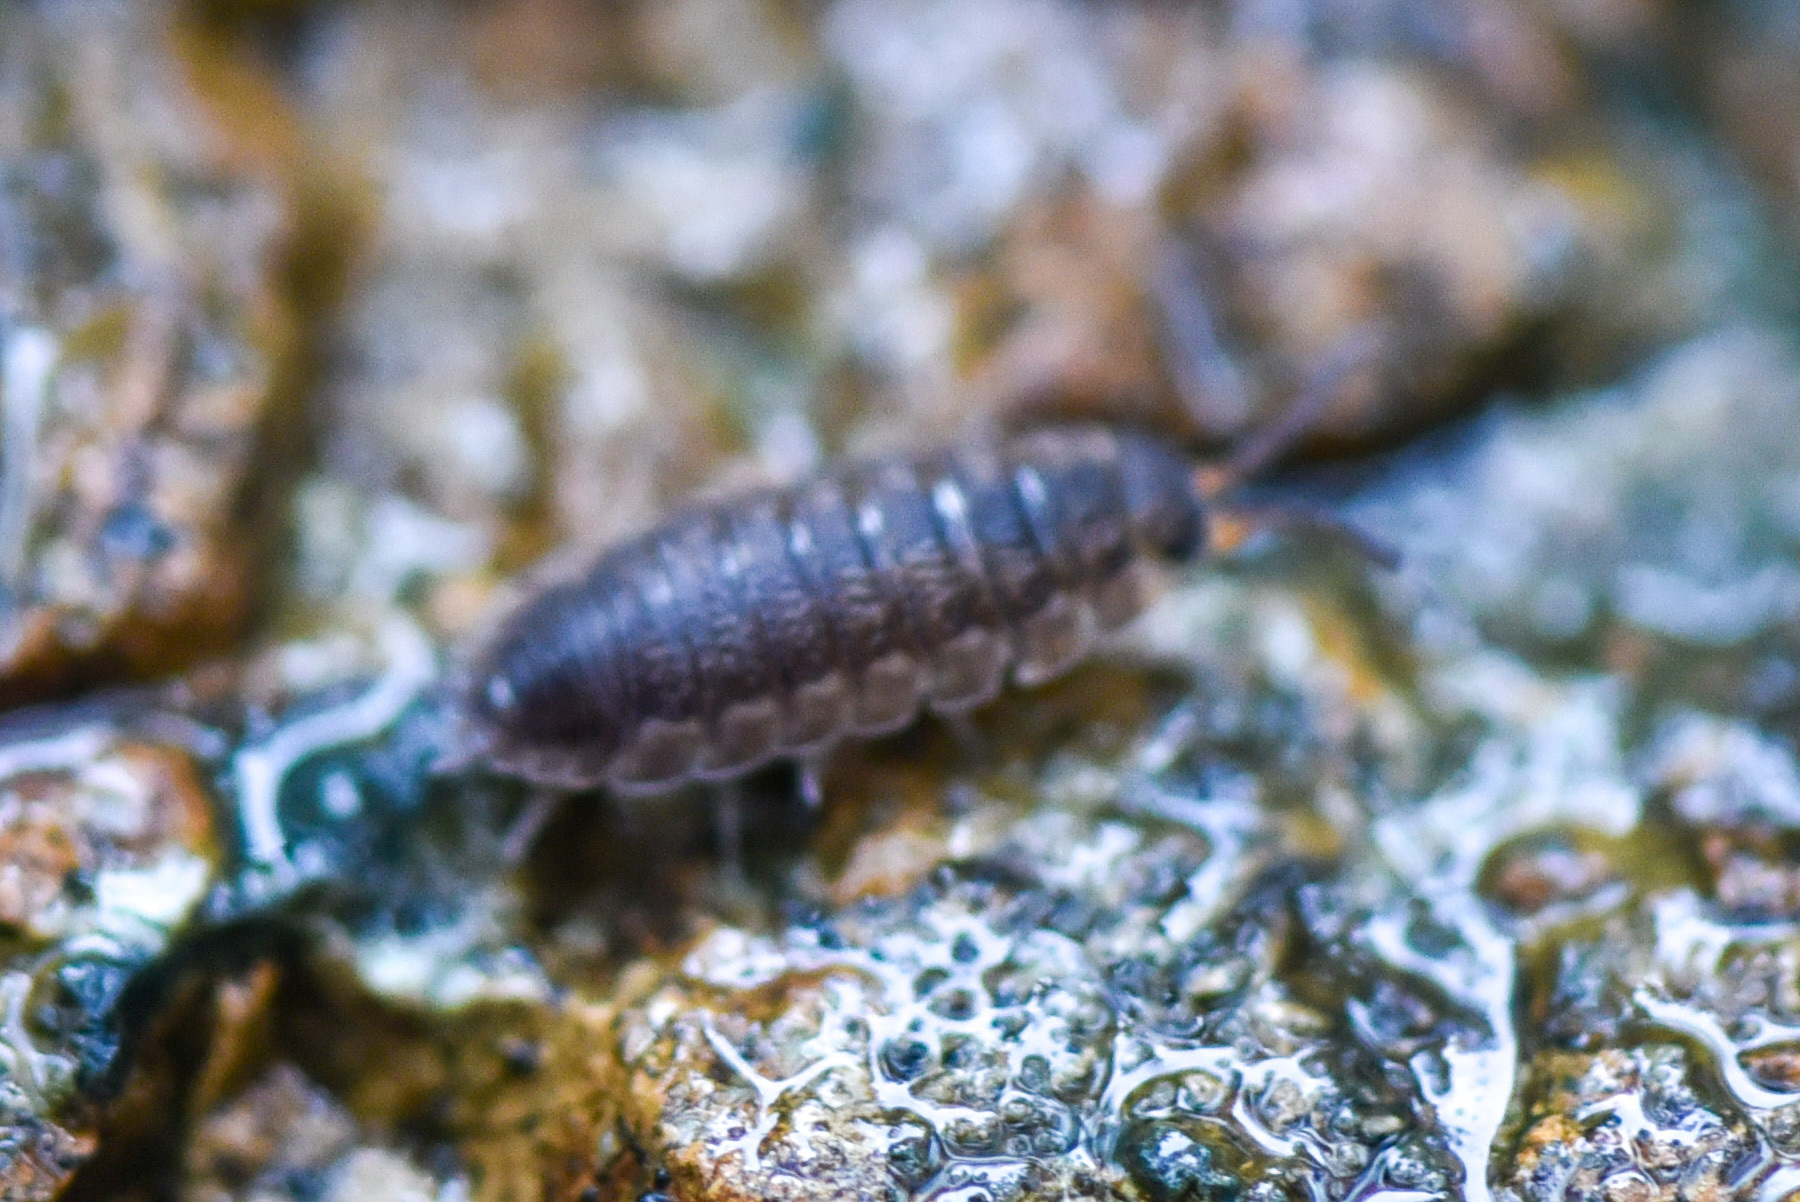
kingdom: Animalia
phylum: Arthropoda
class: Malacostraca
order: Isopoda
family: Porcellionidae
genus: Porcellio
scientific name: Porcellio scaber
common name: Common rough woodlouse
